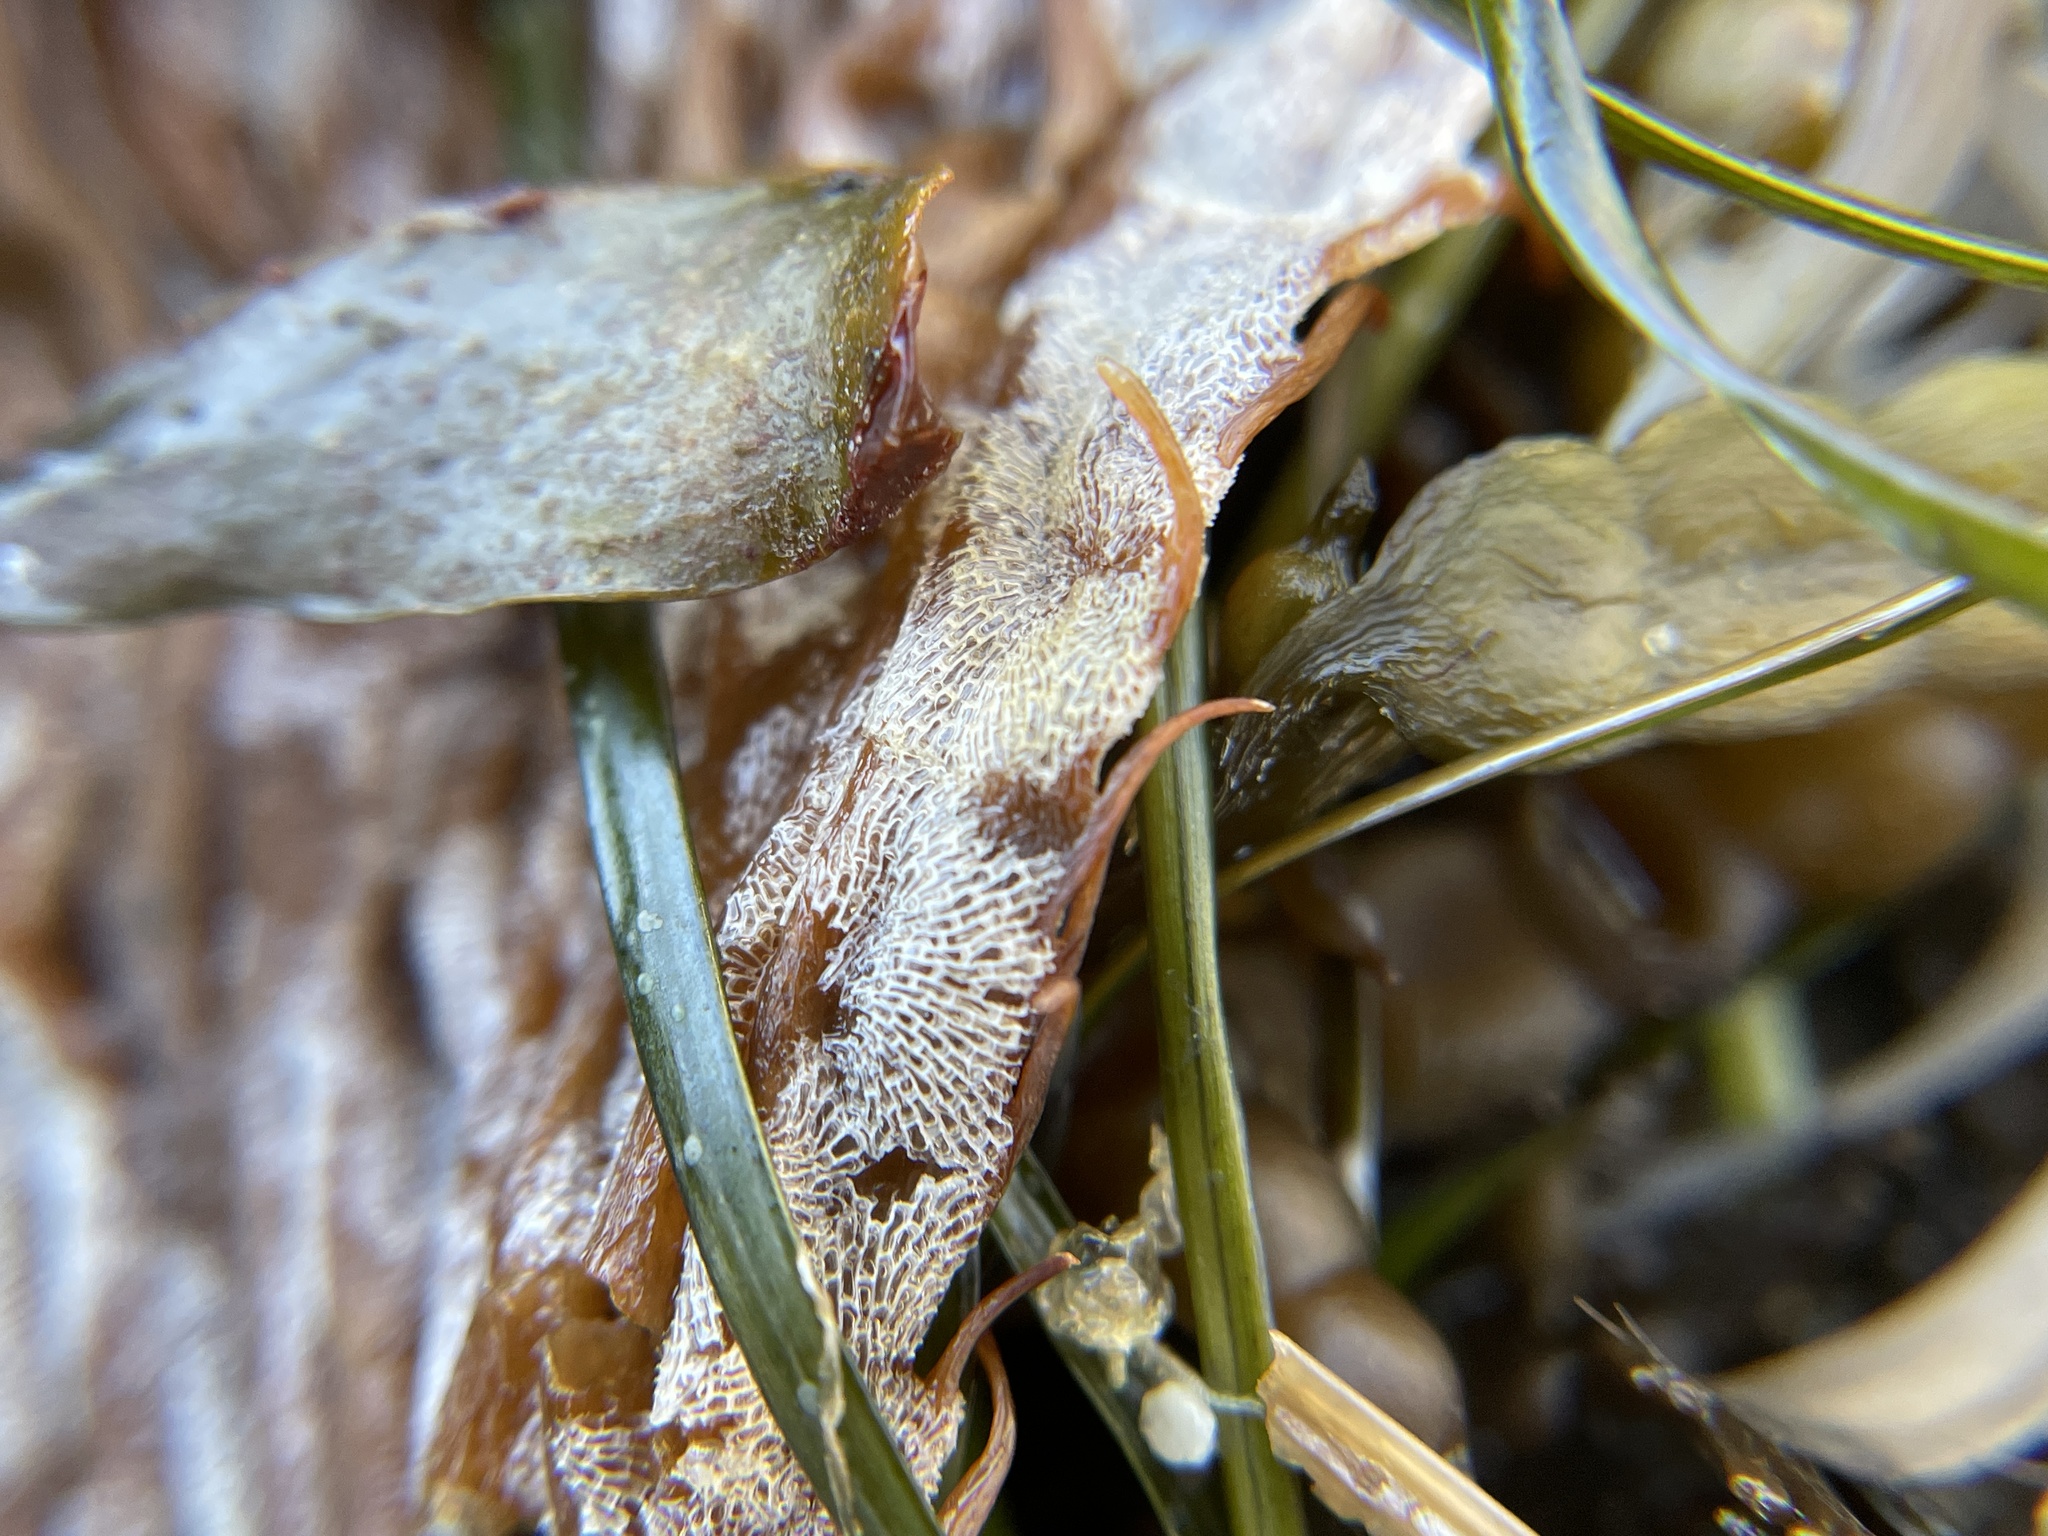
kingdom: Animalia
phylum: Bryozoa
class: Gymnolaemata
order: Cheilostomatida
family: Membraniporidae
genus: Membranipora
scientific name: Membranipora membranacea
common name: Sea mat
